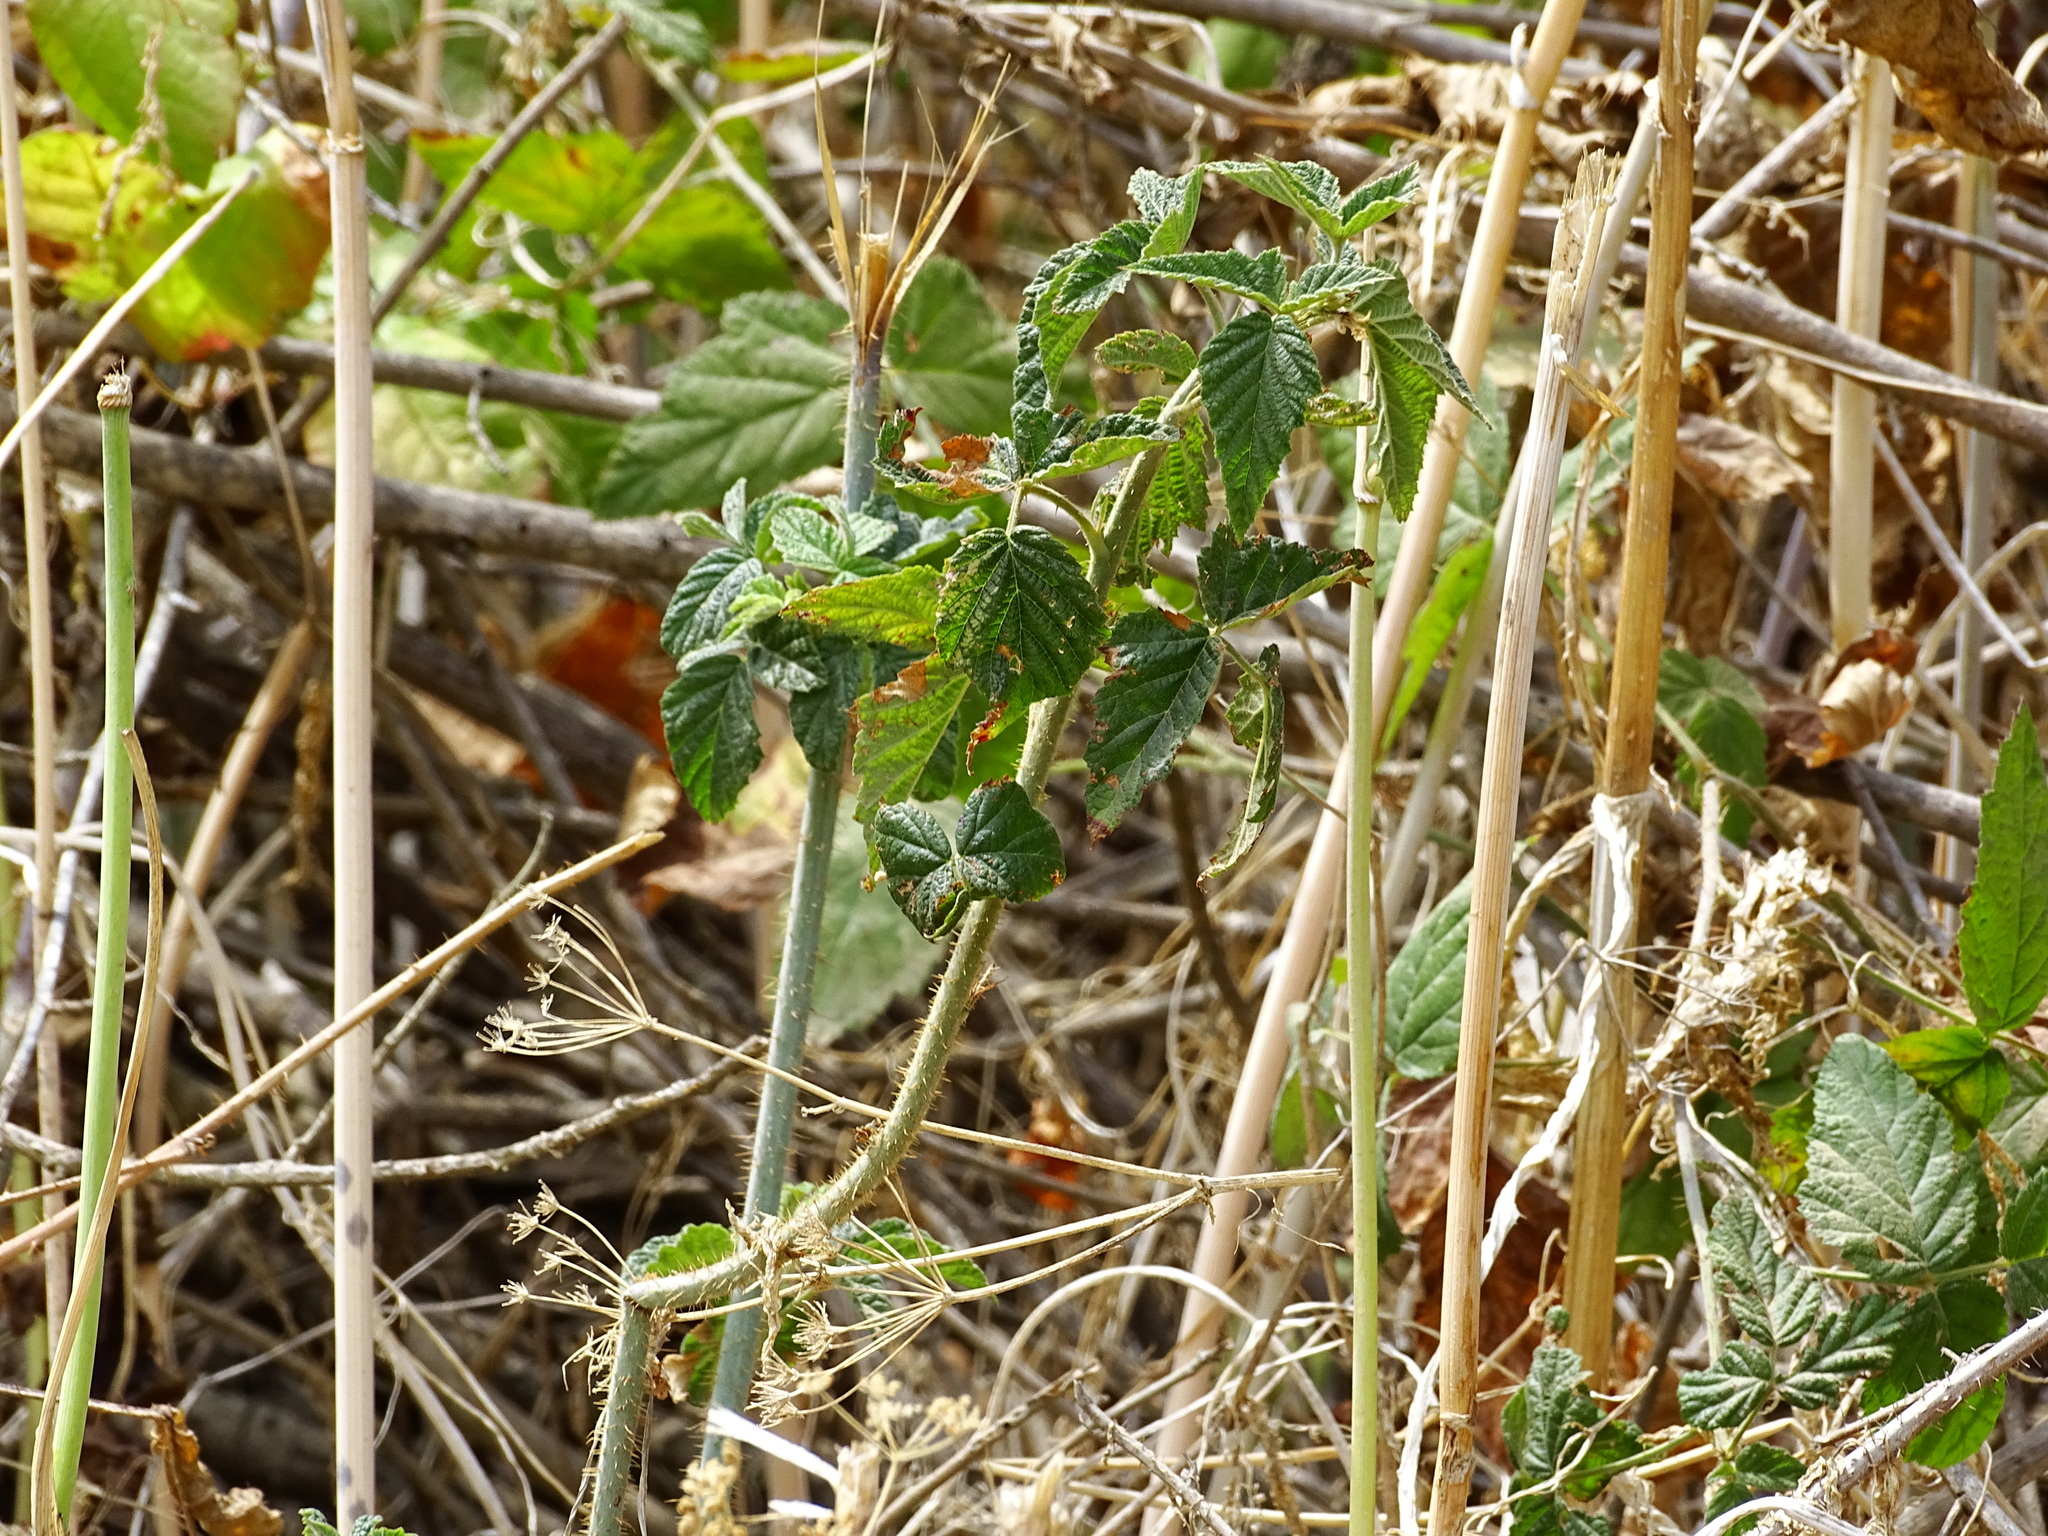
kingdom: Plantae
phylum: Tracheophyta
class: Magnoliopsida
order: Rosales
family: Rosaceae
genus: Rubus
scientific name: Rubus ursinus
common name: Pacific blackberry
